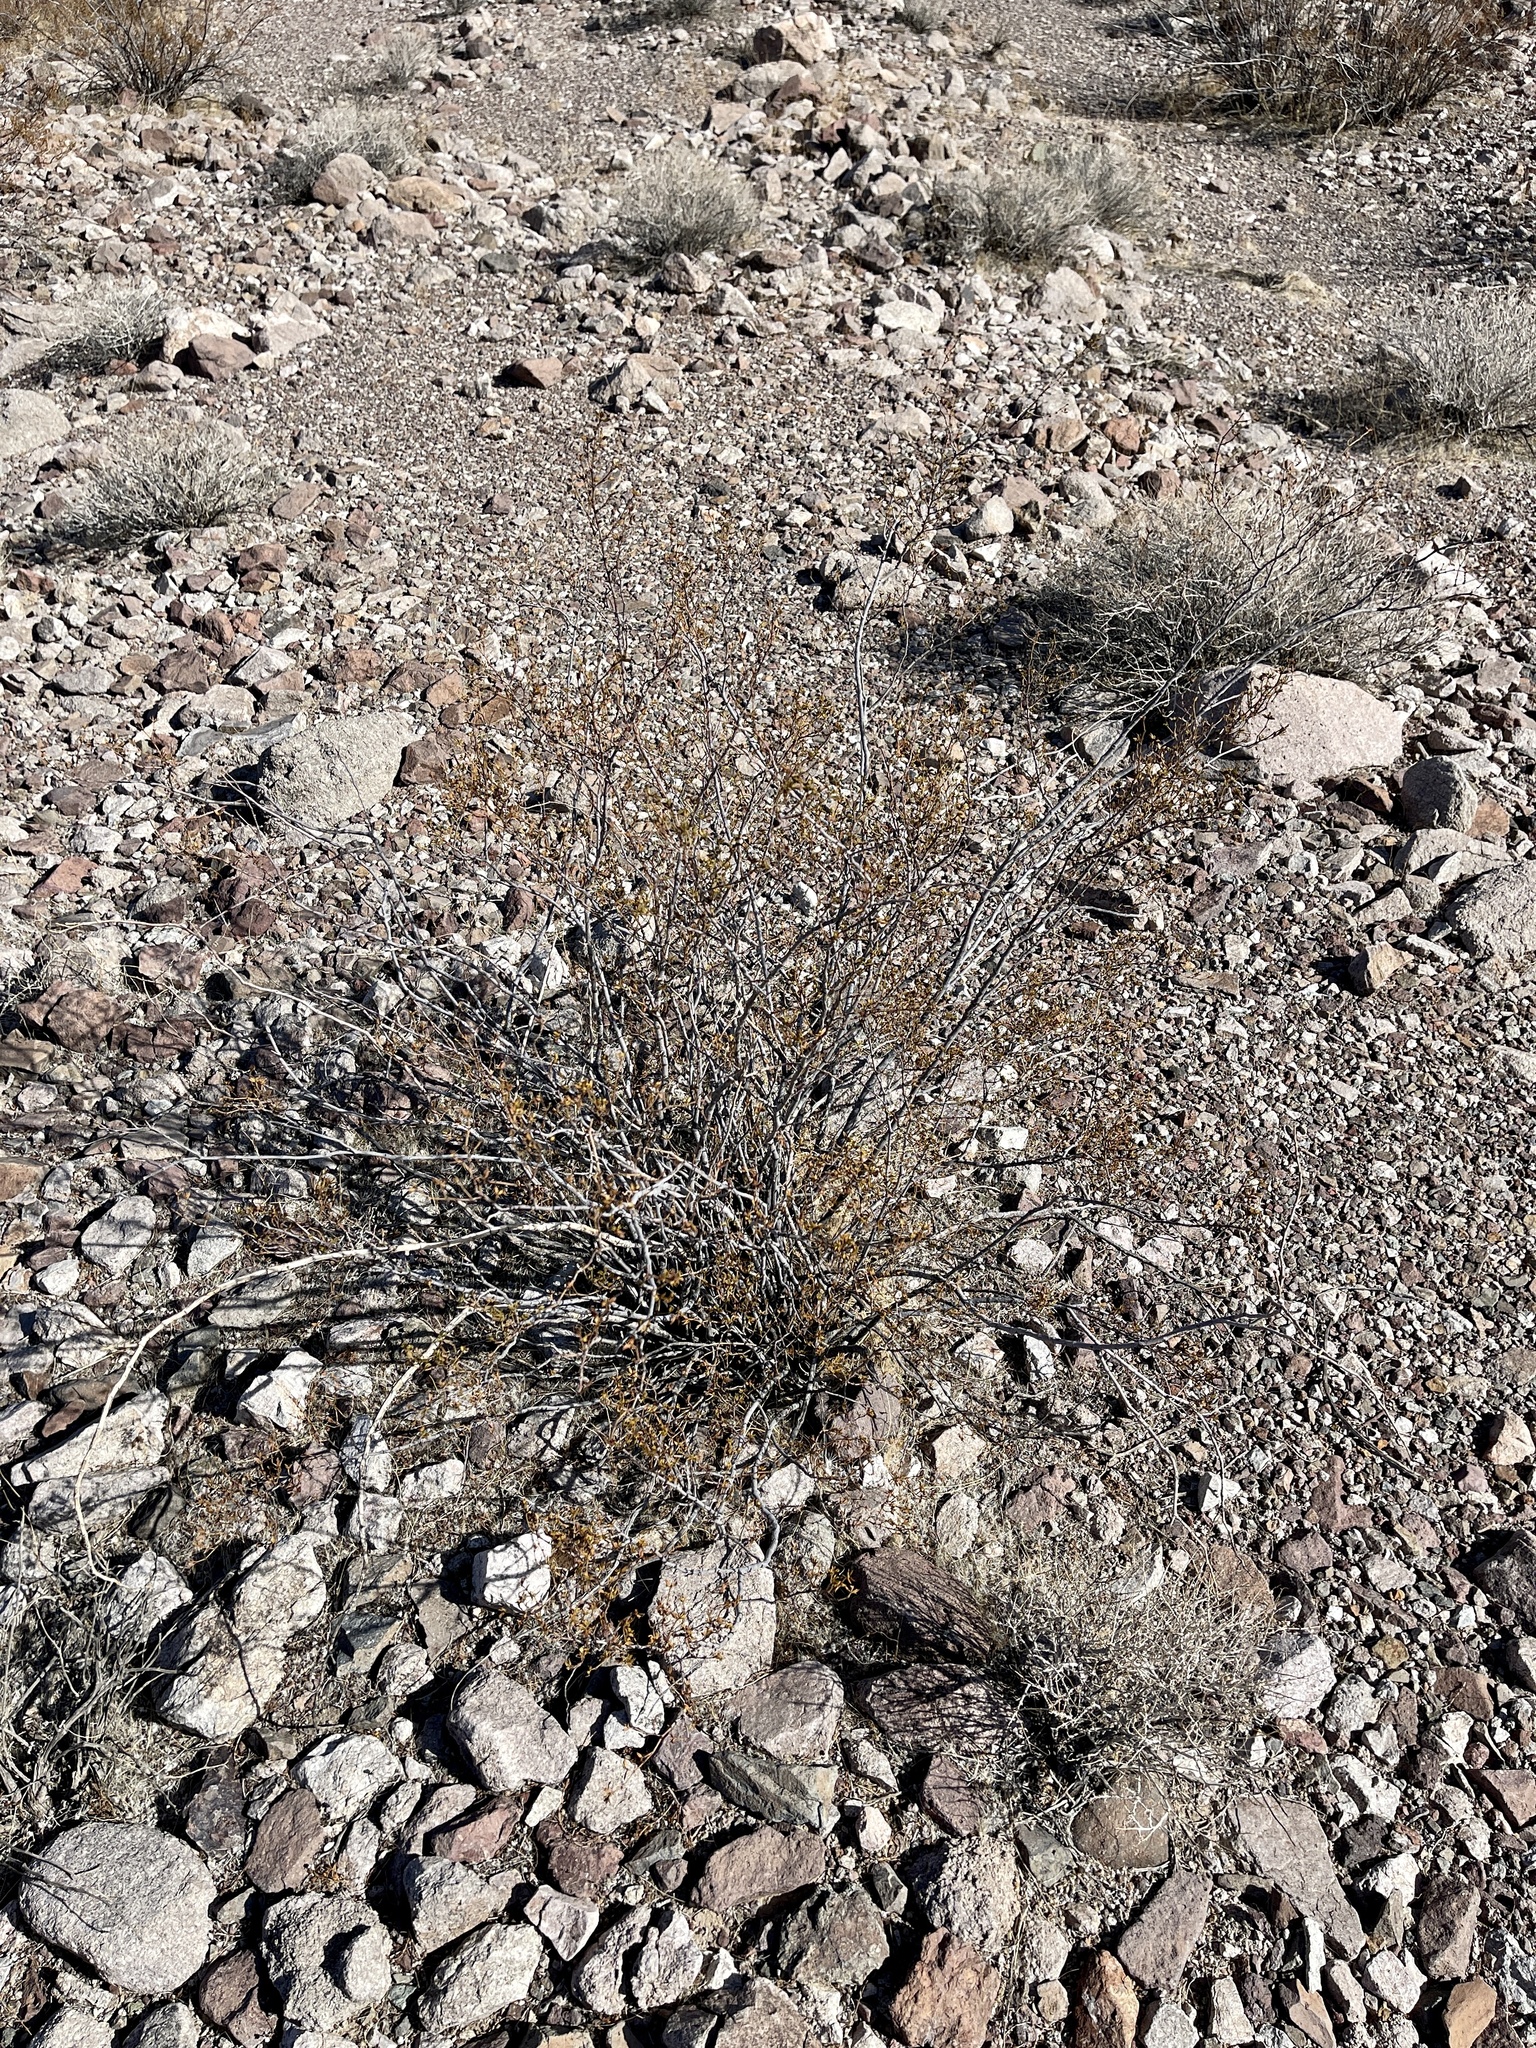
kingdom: Plantae
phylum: Tracheophyta
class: Magnoliopsida
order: Zygophyllales
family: Zygophyllaceae
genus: Larrea
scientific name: Larrea tridentata
